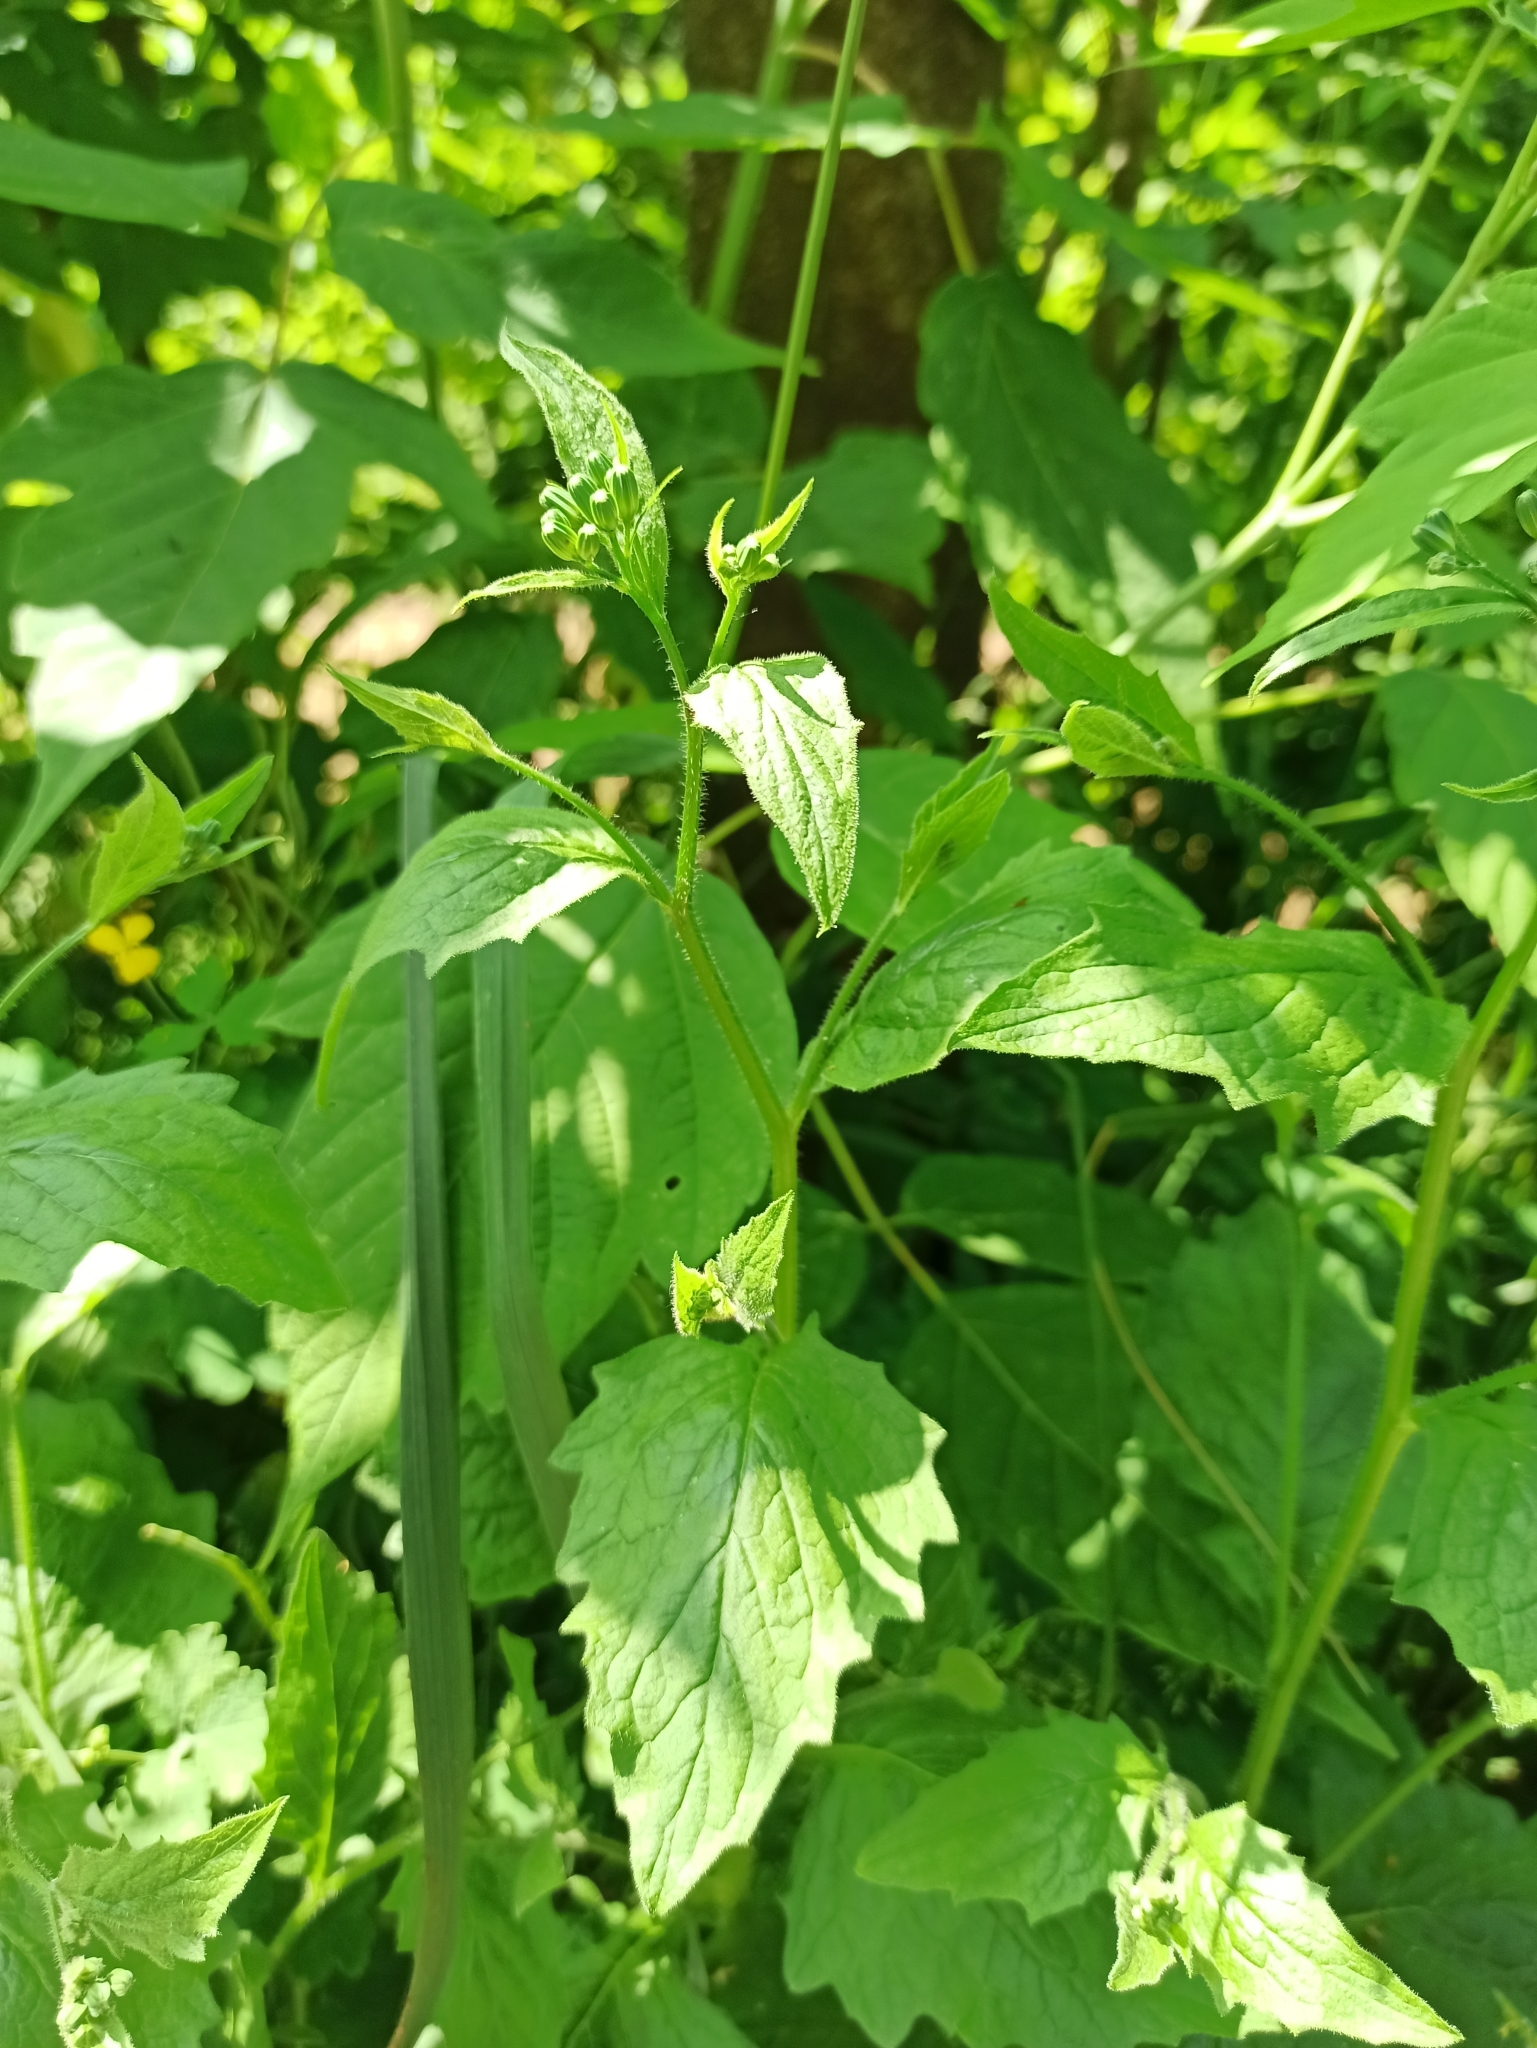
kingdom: Plantae
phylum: Tracheophyta
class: Magnoliopsida
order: Asterales
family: Asteraceae
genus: Lapsana
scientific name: Lapsana communis
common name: Nipplewort
